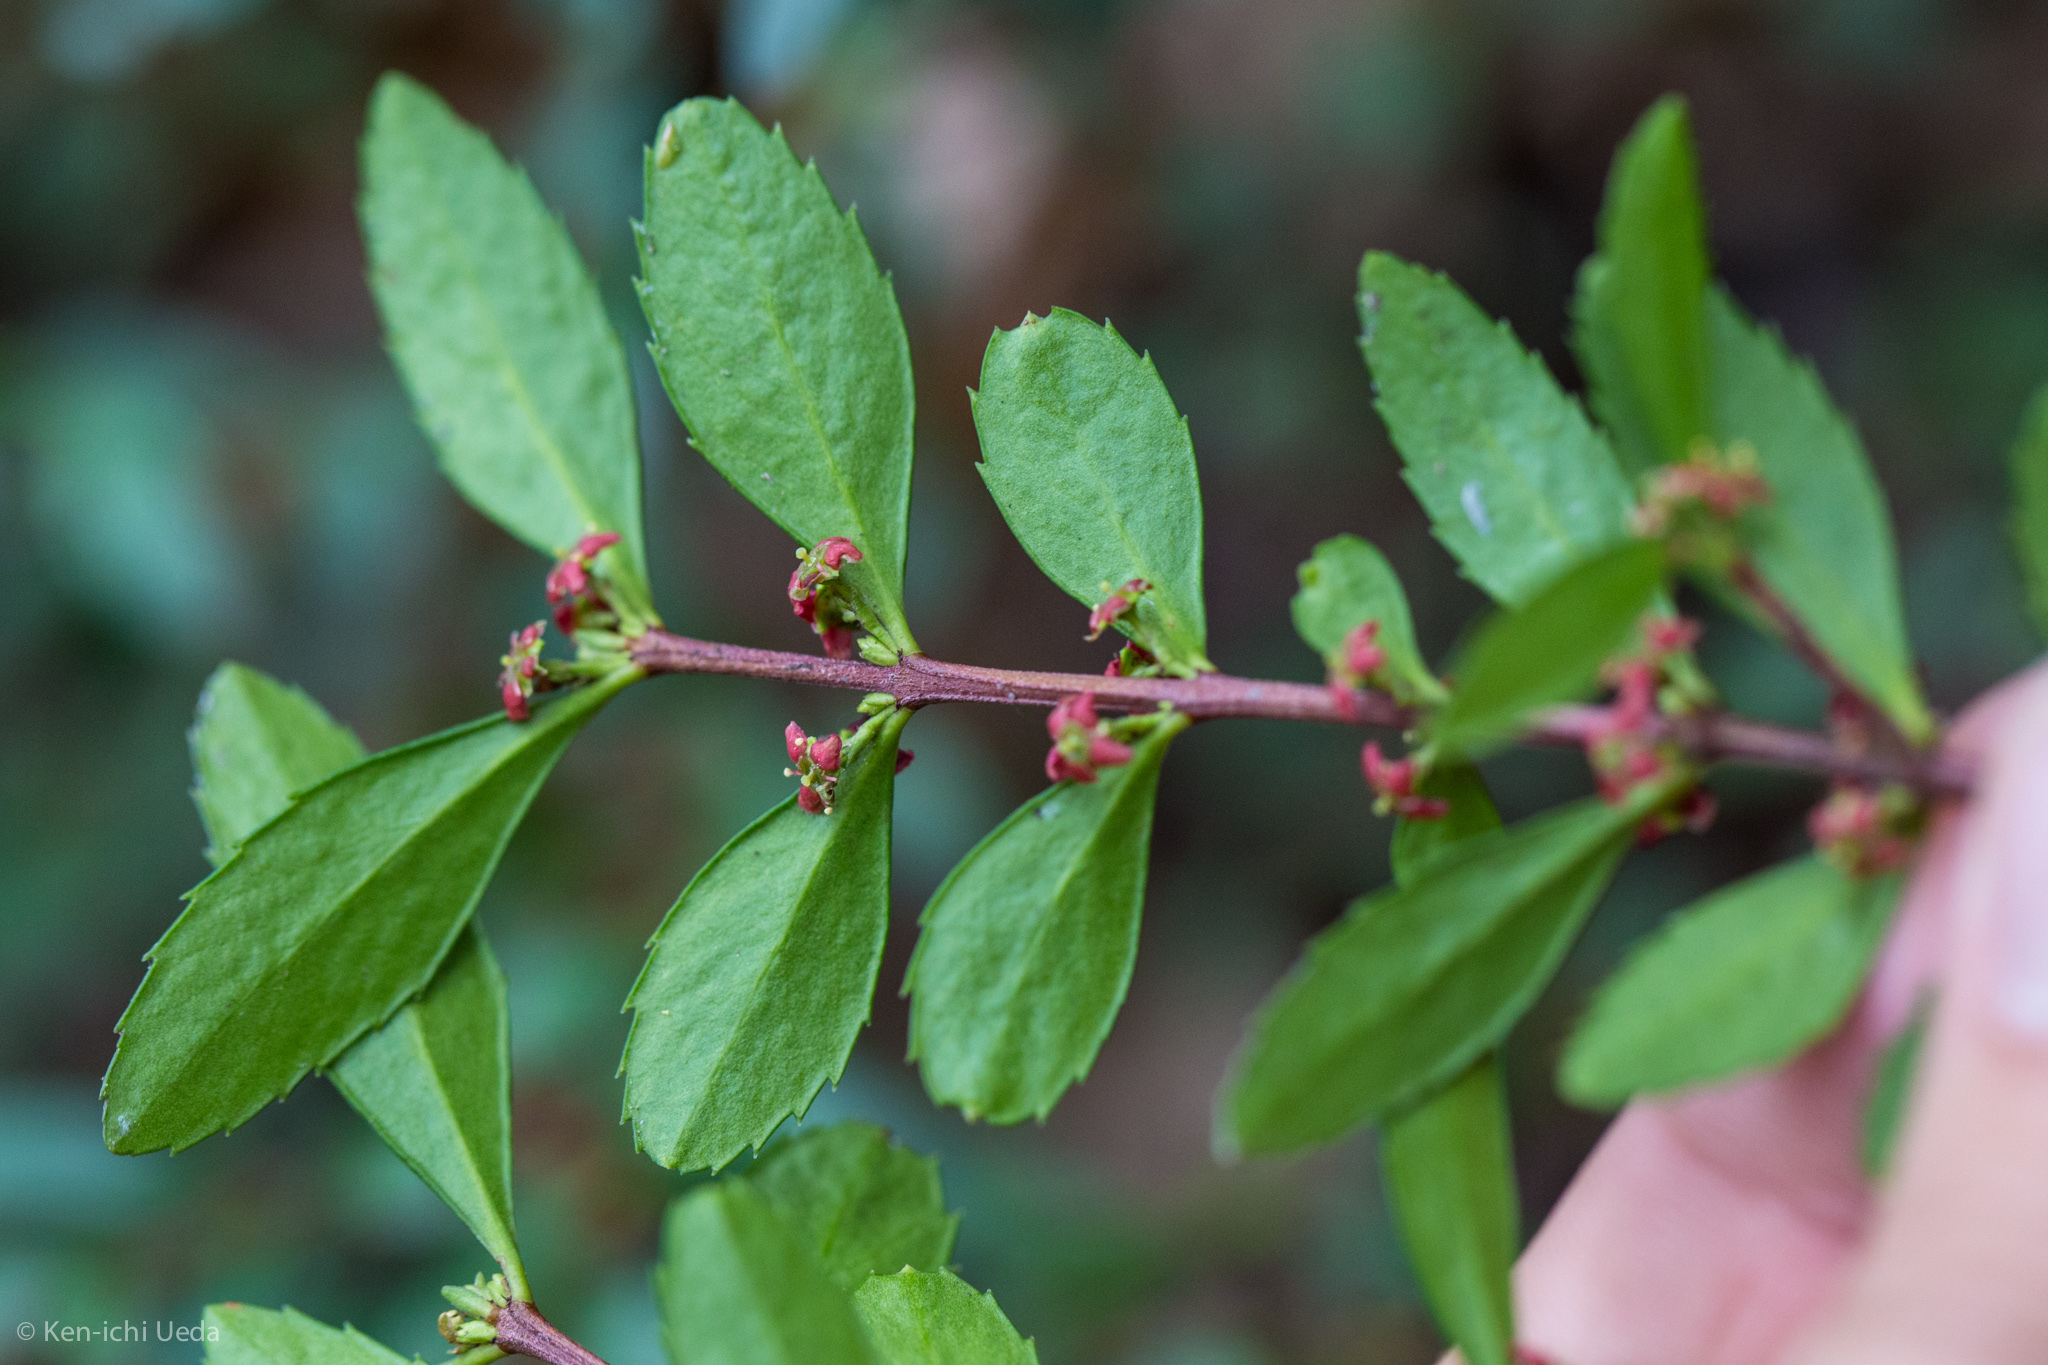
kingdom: Plantae
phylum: Tracheophyta
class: Magnoliopsida
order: Celastrales
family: Celastraceae
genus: Paxistima
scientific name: Paxistima myrsinites
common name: Mountain-lover
